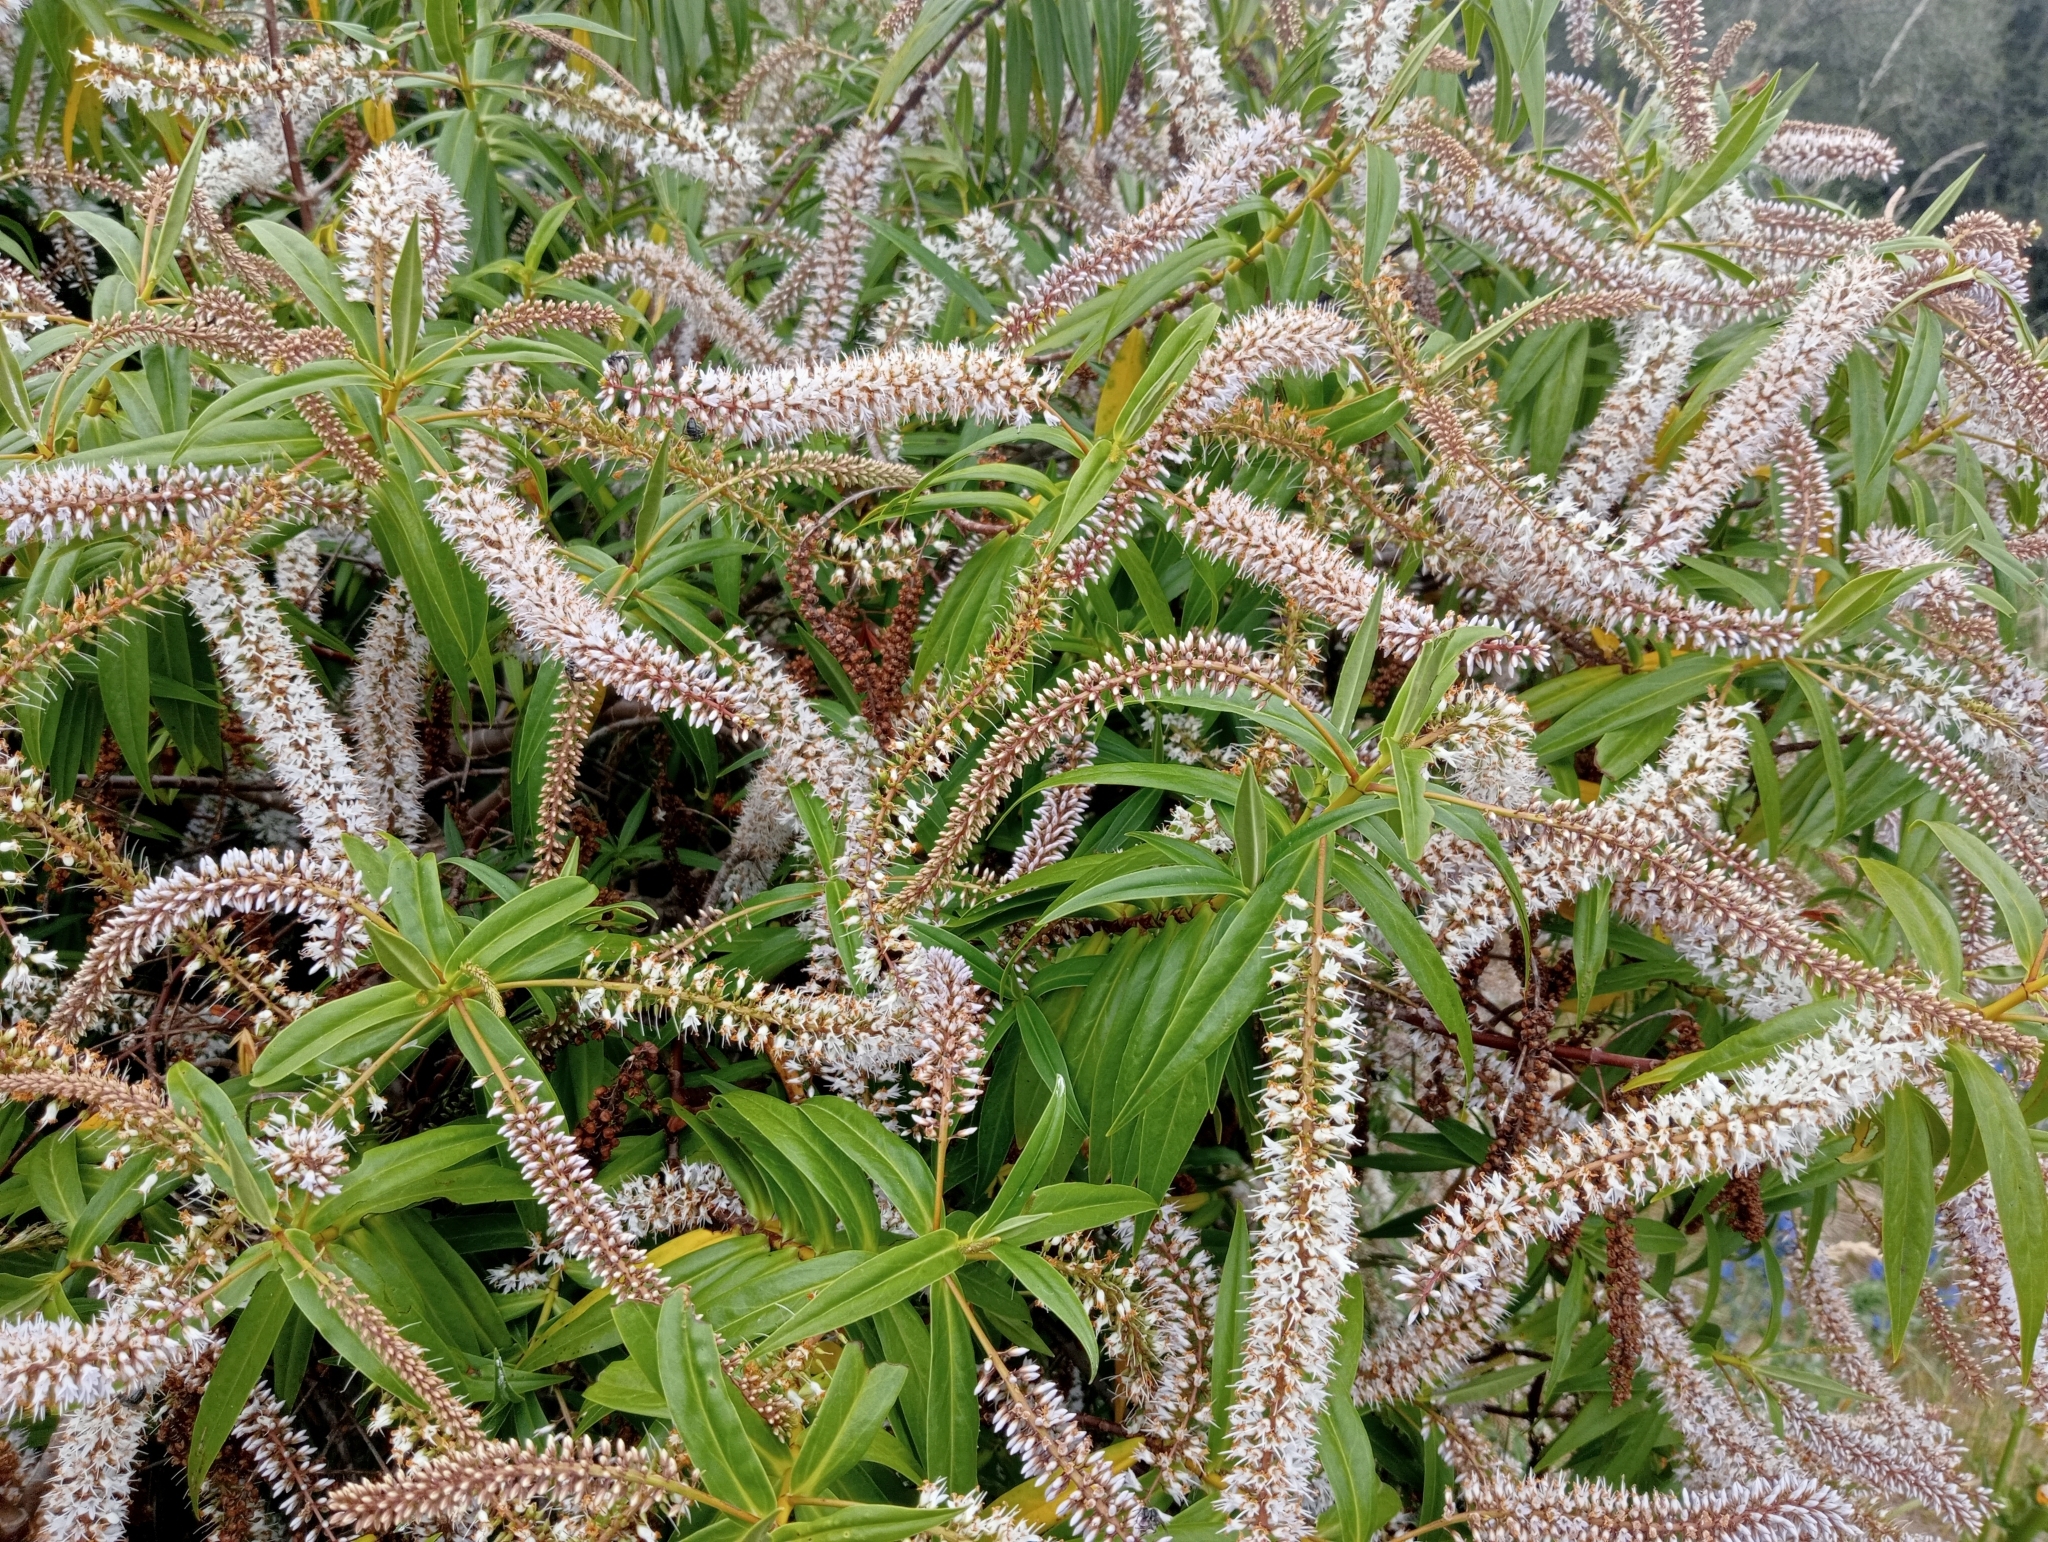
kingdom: Plantae
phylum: Tracheophyta
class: Magnoliopsida
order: Lamiales
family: Plantaginaceae
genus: Veronica
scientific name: Veronica salicifolia
